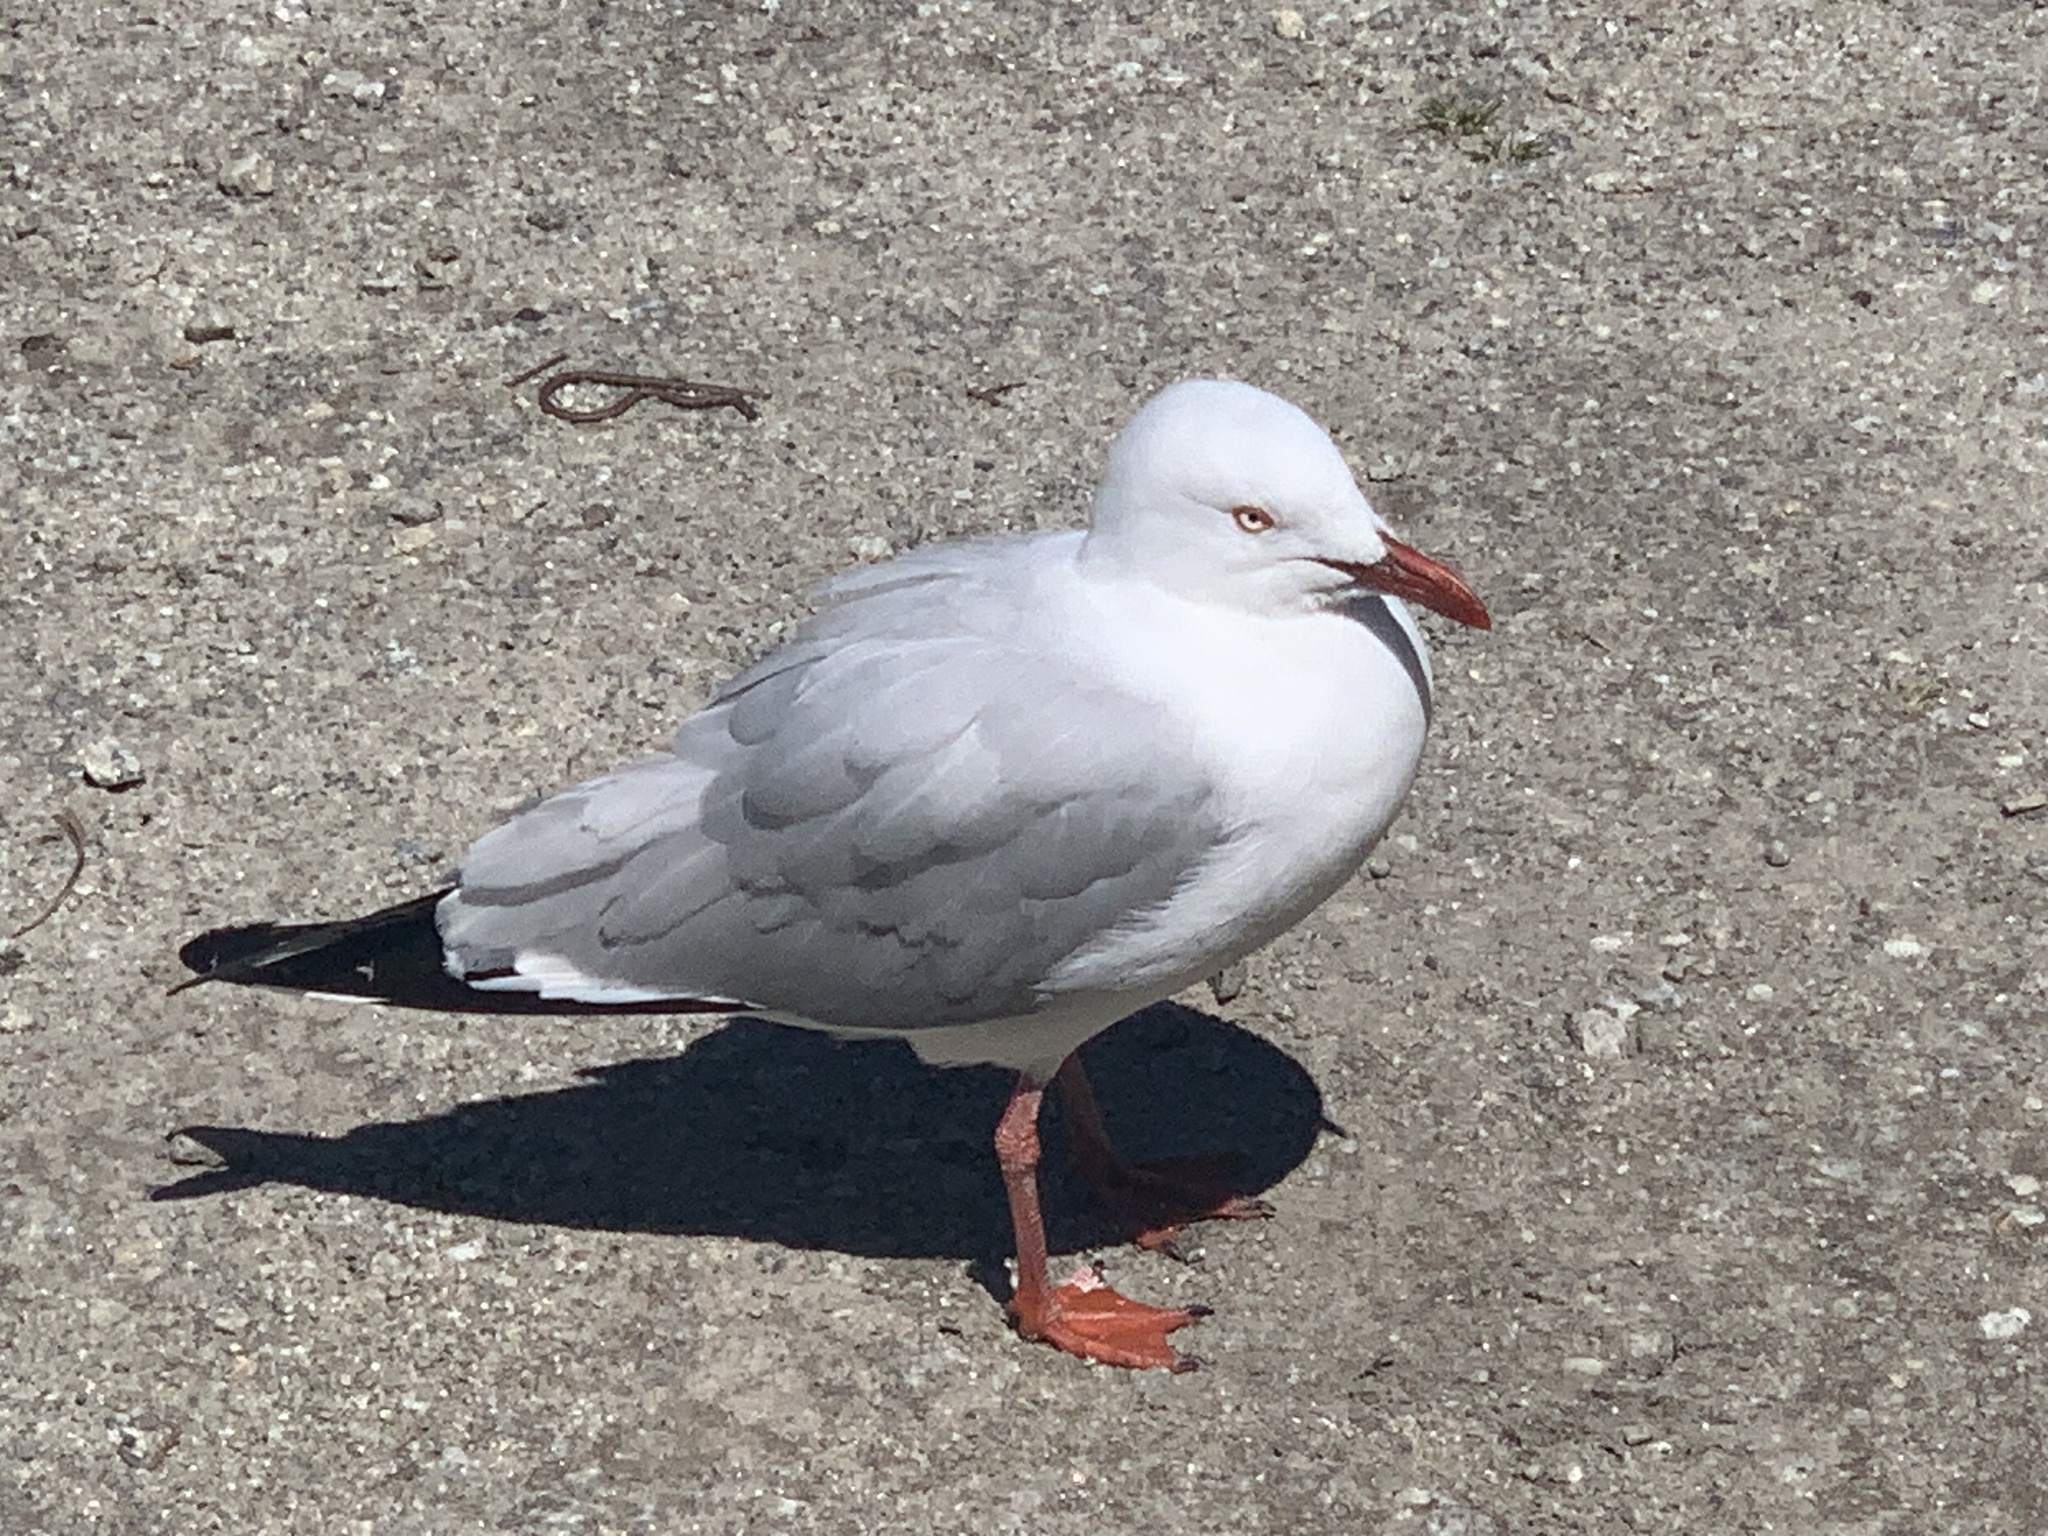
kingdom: Animalia
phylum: Chordata
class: Aves
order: Charadriiformes
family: Laridae
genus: Chroicocephalus
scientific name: Chroicocephalus novaehollandiae
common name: Silver gull
